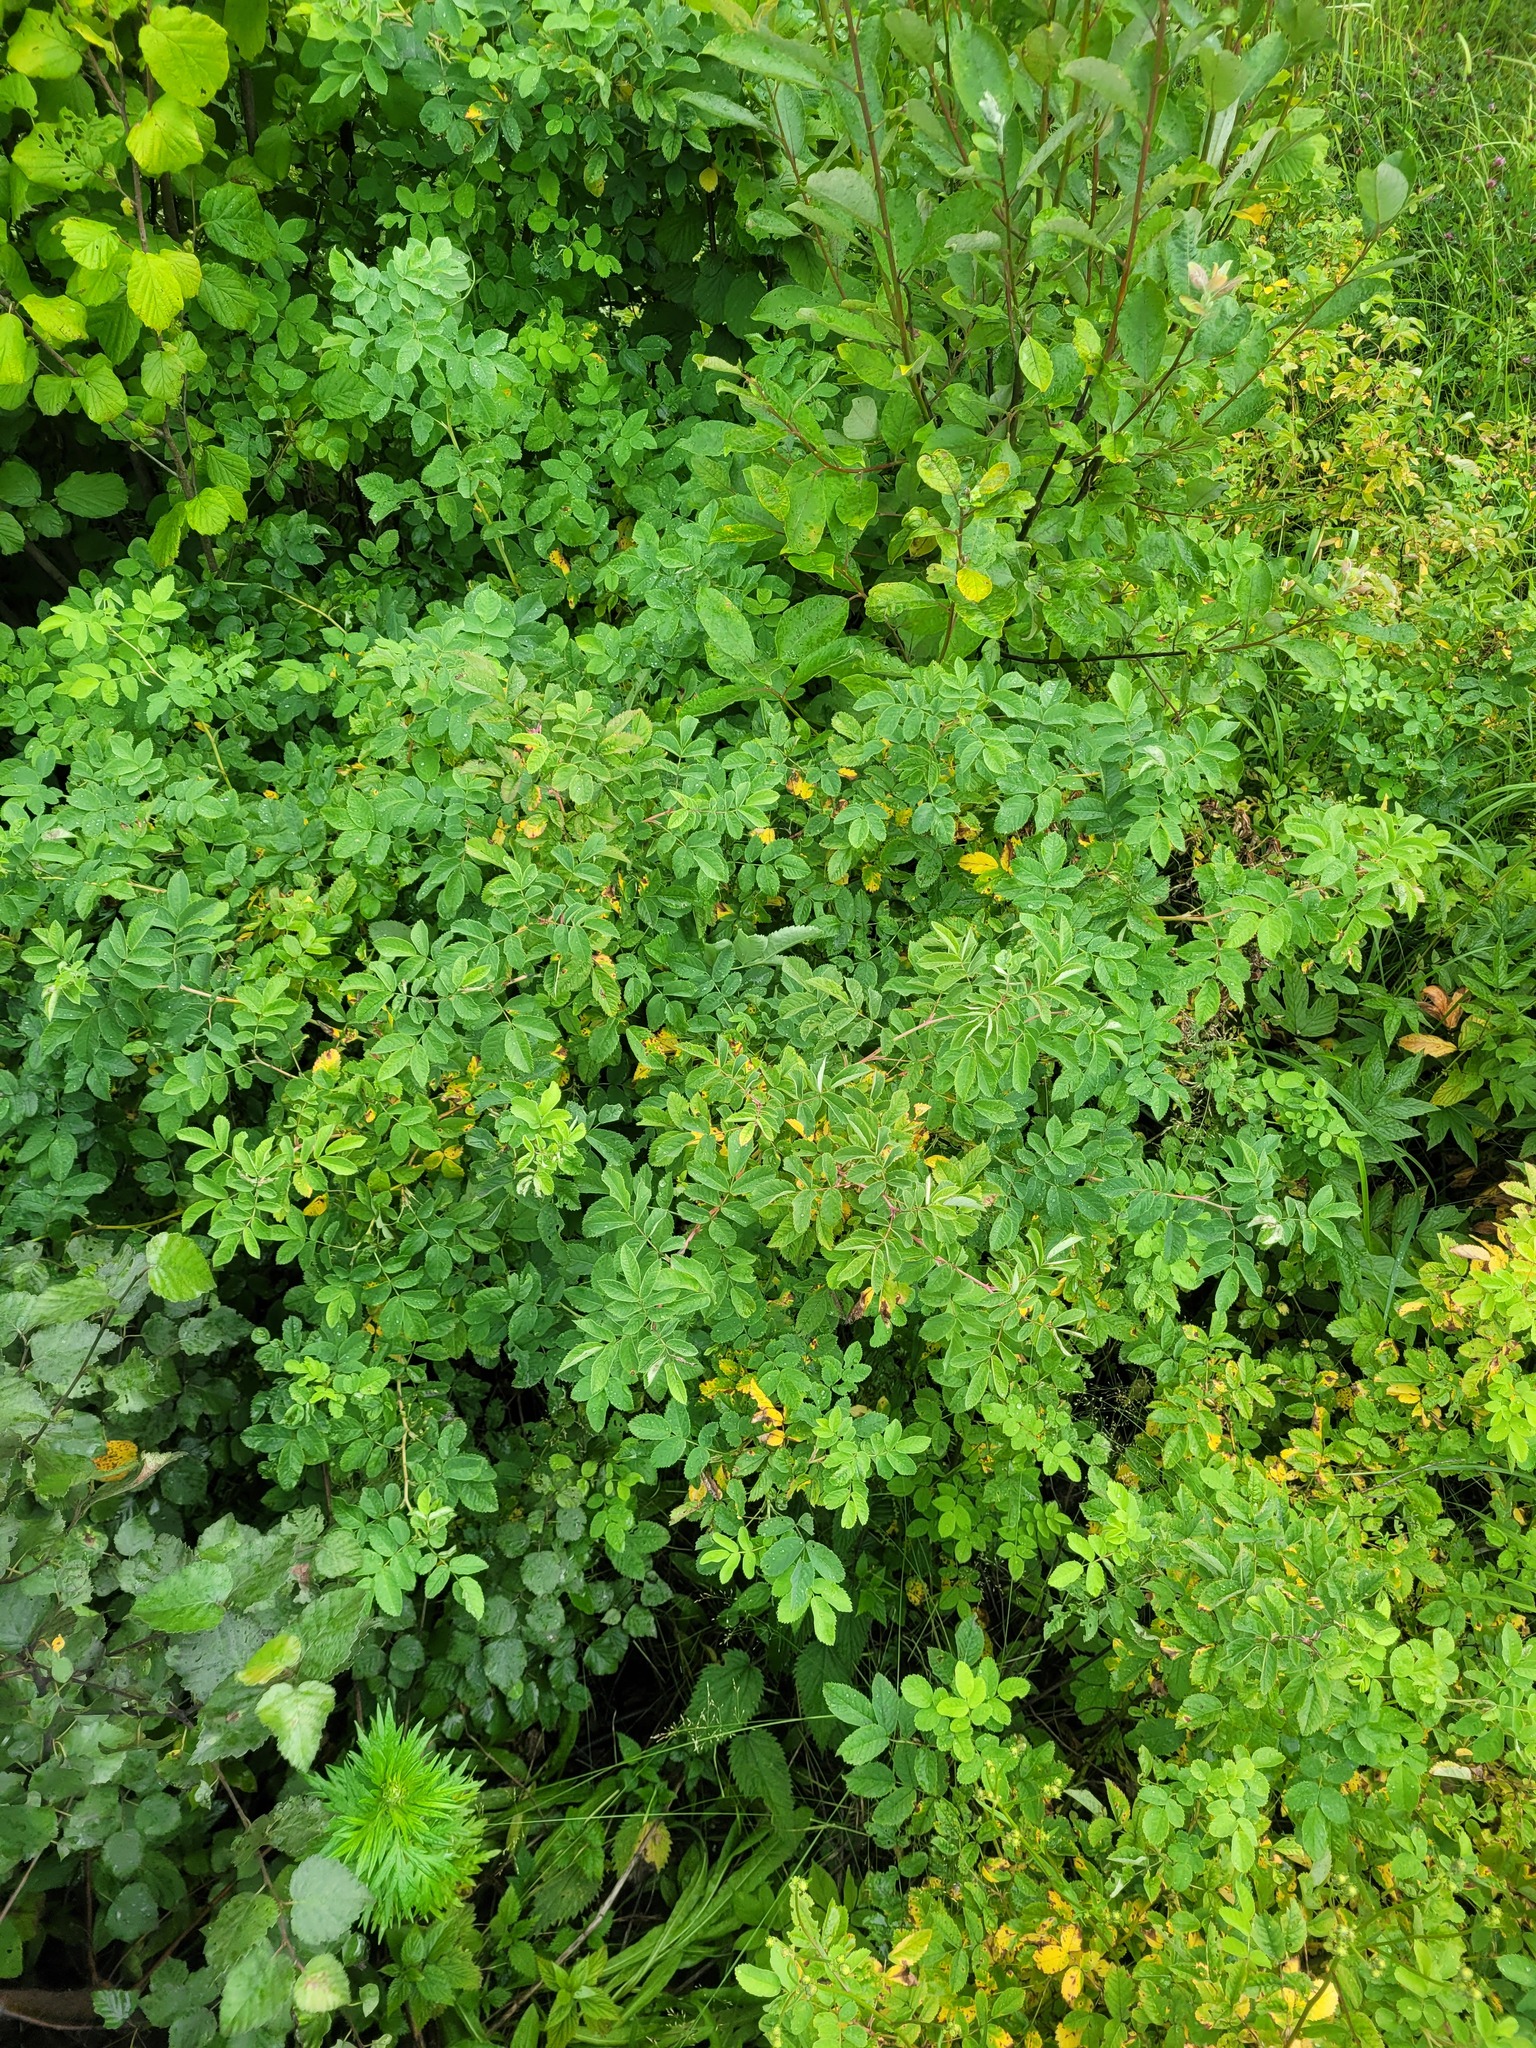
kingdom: Plantae
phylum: Tracheophyta
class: Magnoliopsida
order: Rosales
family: Rosaceae
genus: Rosa
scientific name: Rosa majalis
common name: Cinnamon rose
